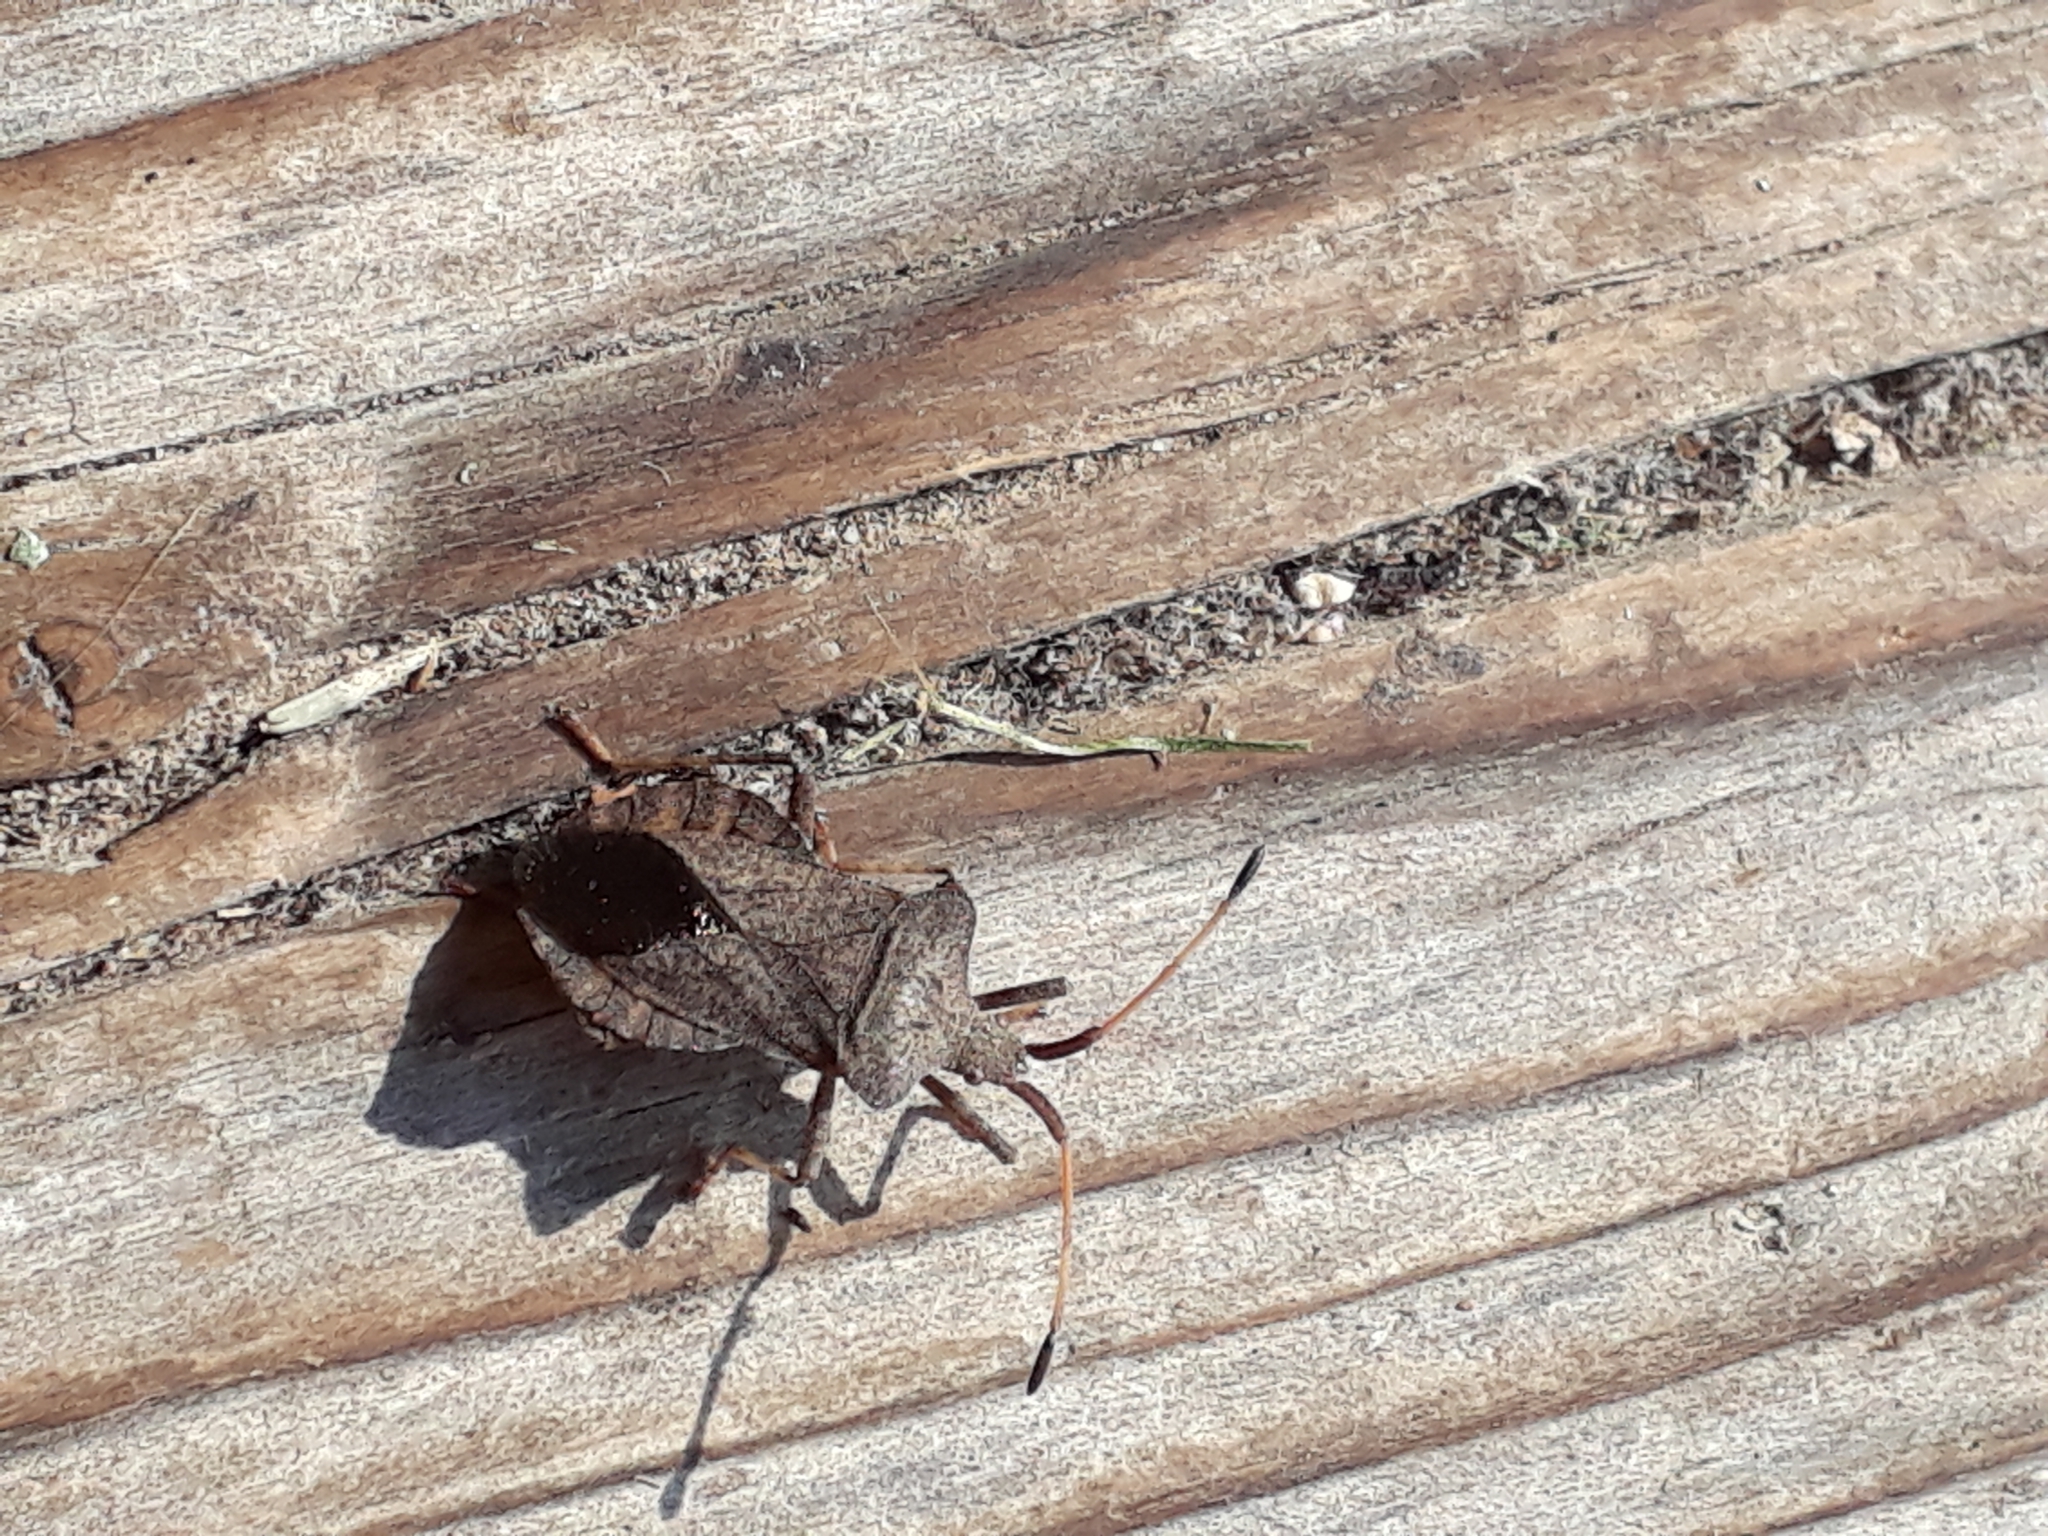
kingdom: Animalia
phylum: Arthropoda
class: Insecta
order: Hemiptera
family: Coreidae
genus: Coreus
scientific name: Coreus marginatus
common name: Dock bug
